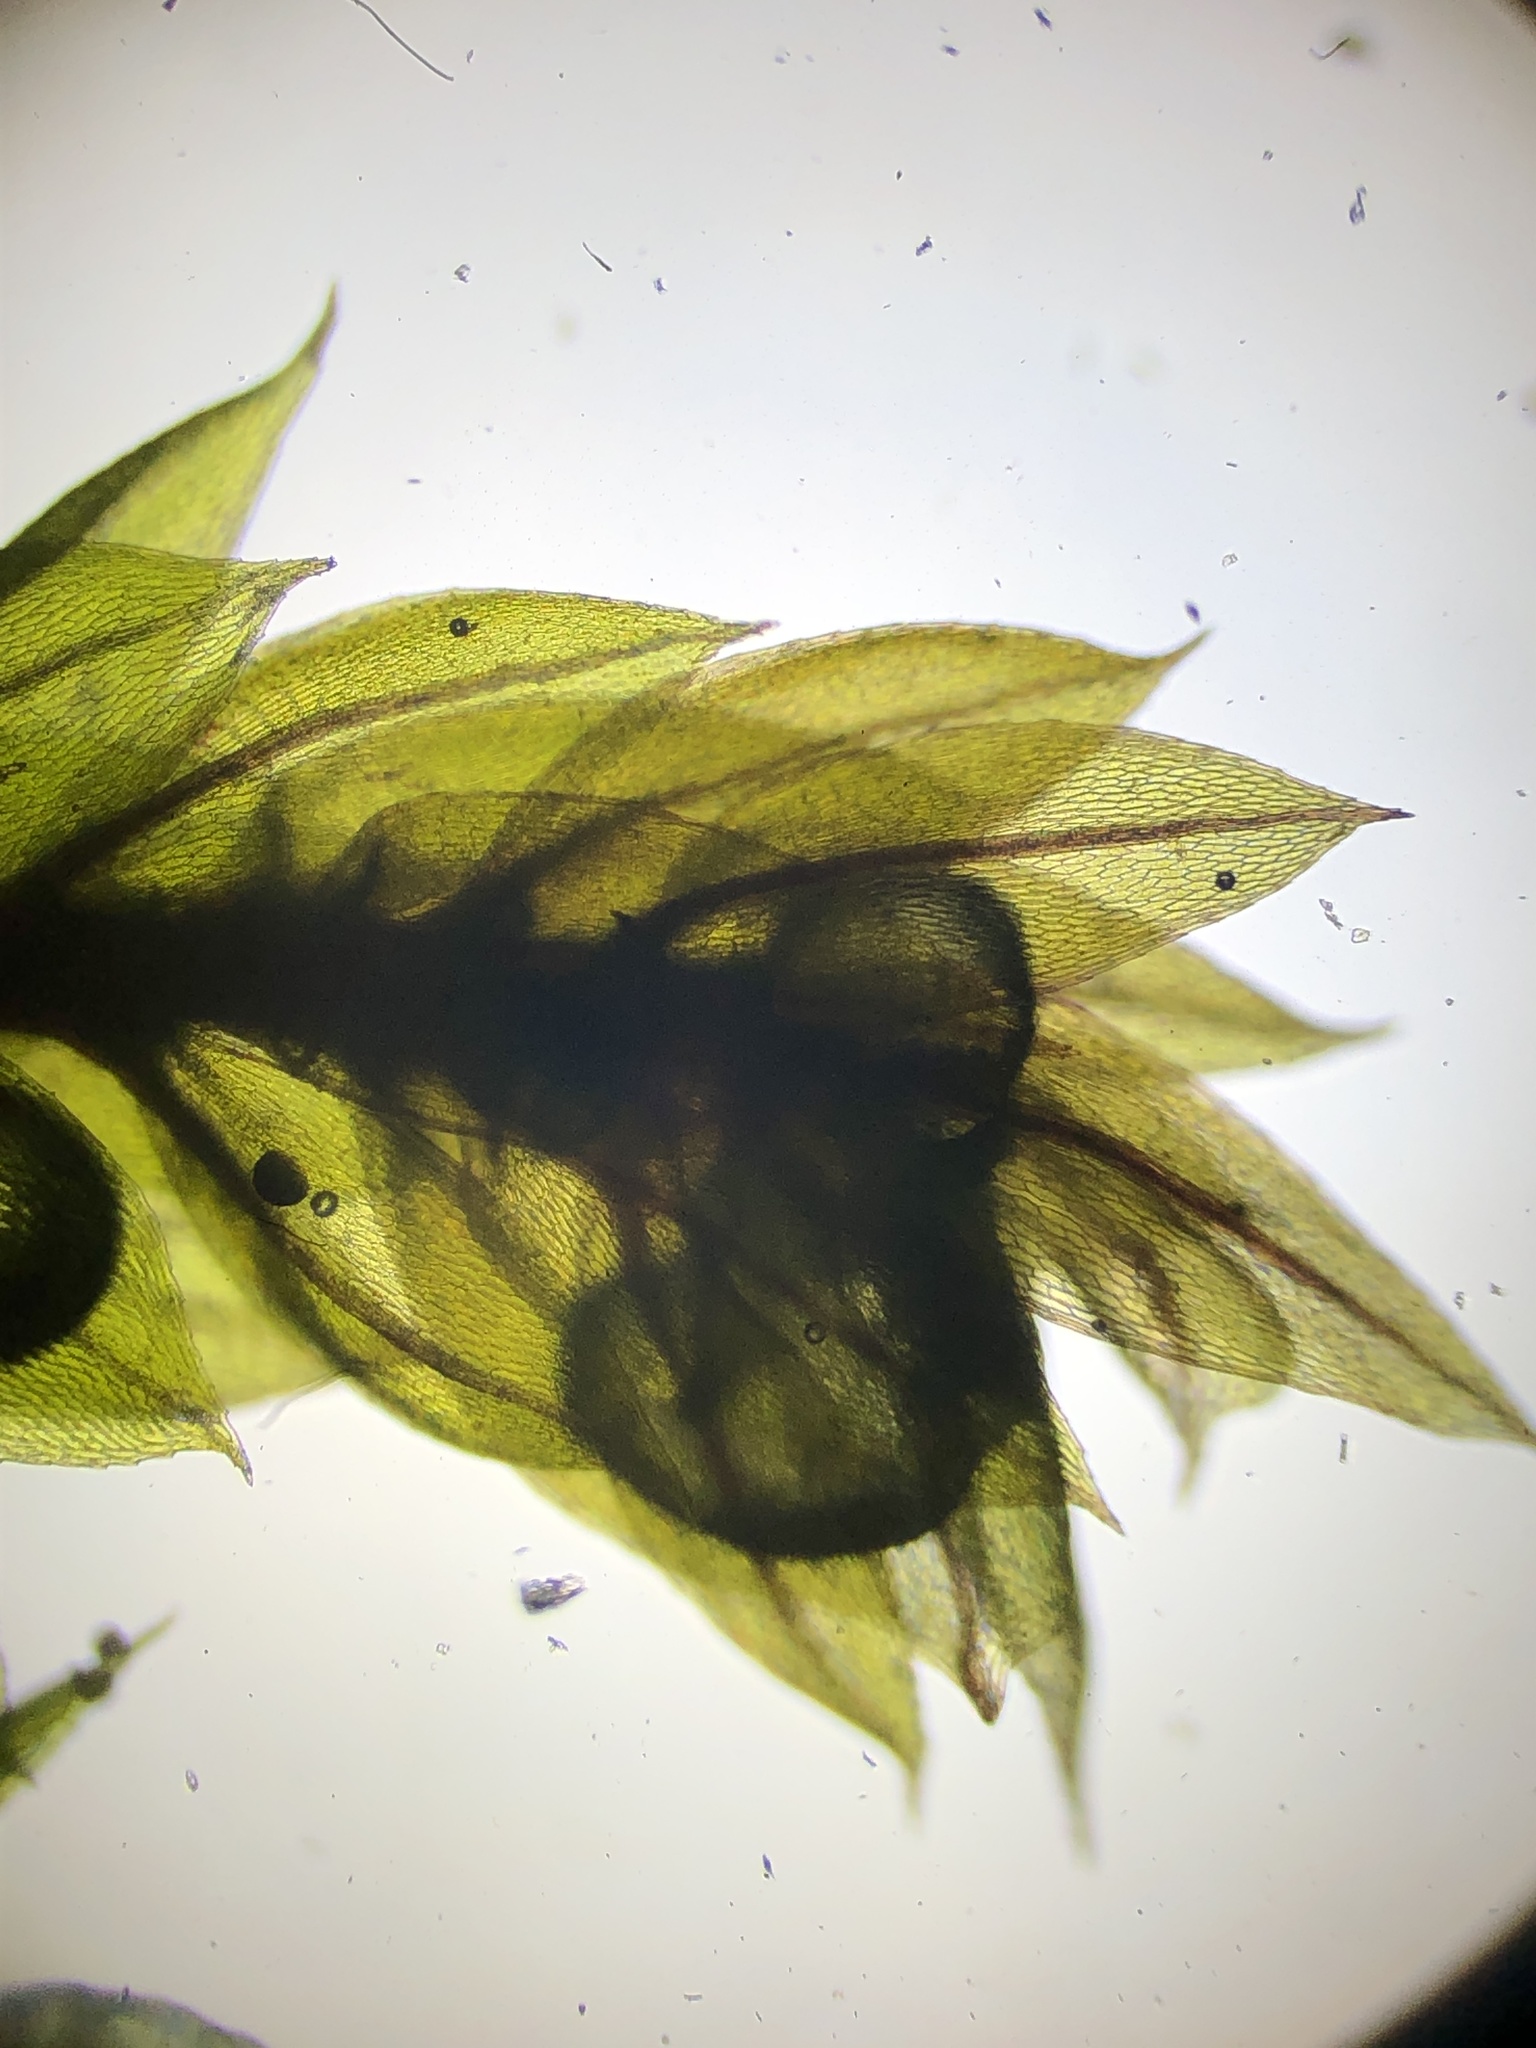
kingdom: Plantae
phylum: Bryophyta
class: Bryopsida
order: Bryales
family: Bryaceae
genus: Rosulabryum
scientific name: Rosulabryum rubens
